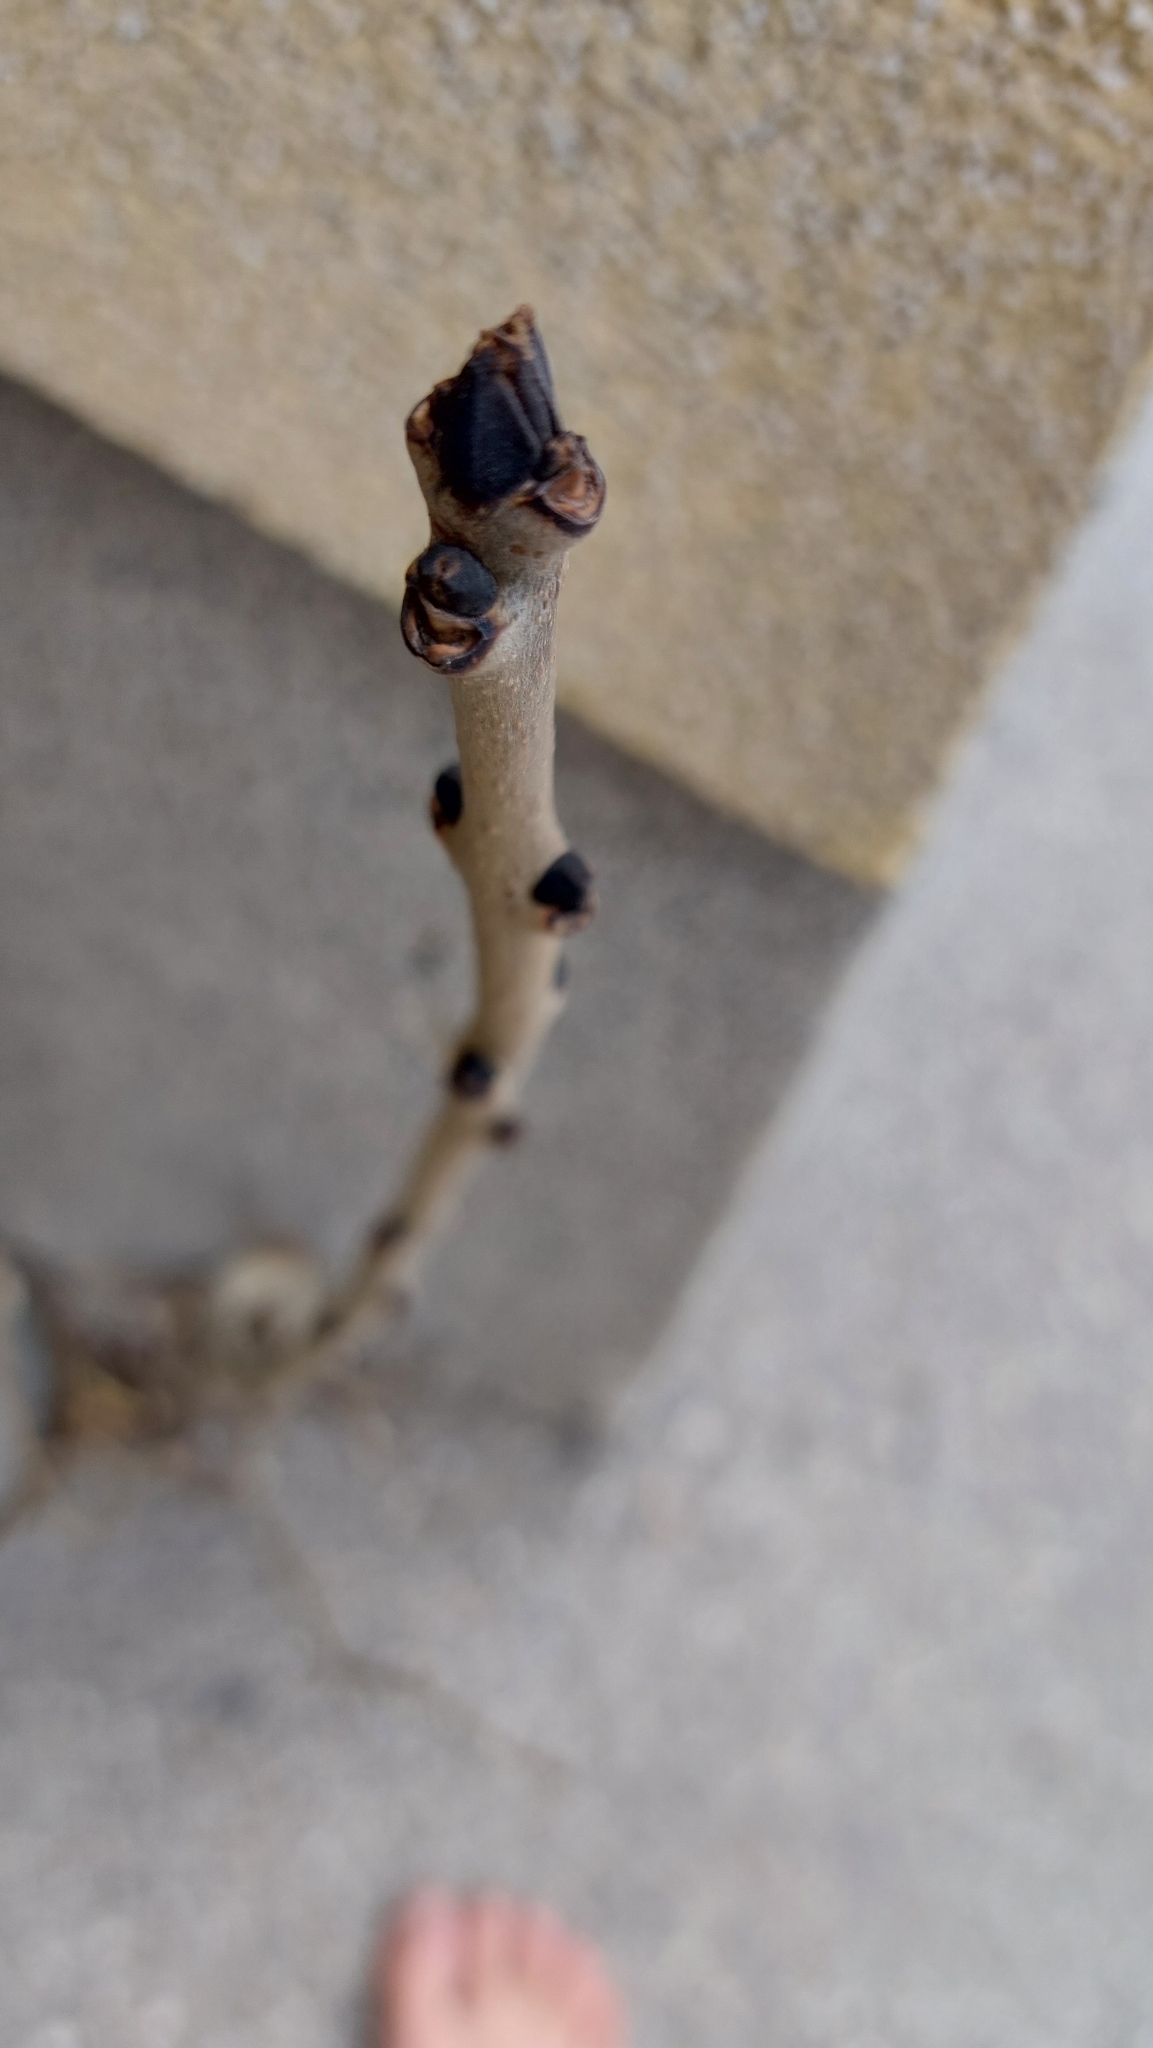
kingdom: Plantae
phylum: Tracheophyta
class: Magnoliopsida
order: Lamiales
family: Oleaceae
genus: Fraxinus
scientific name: Fraxinus excelsior
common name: European ash
